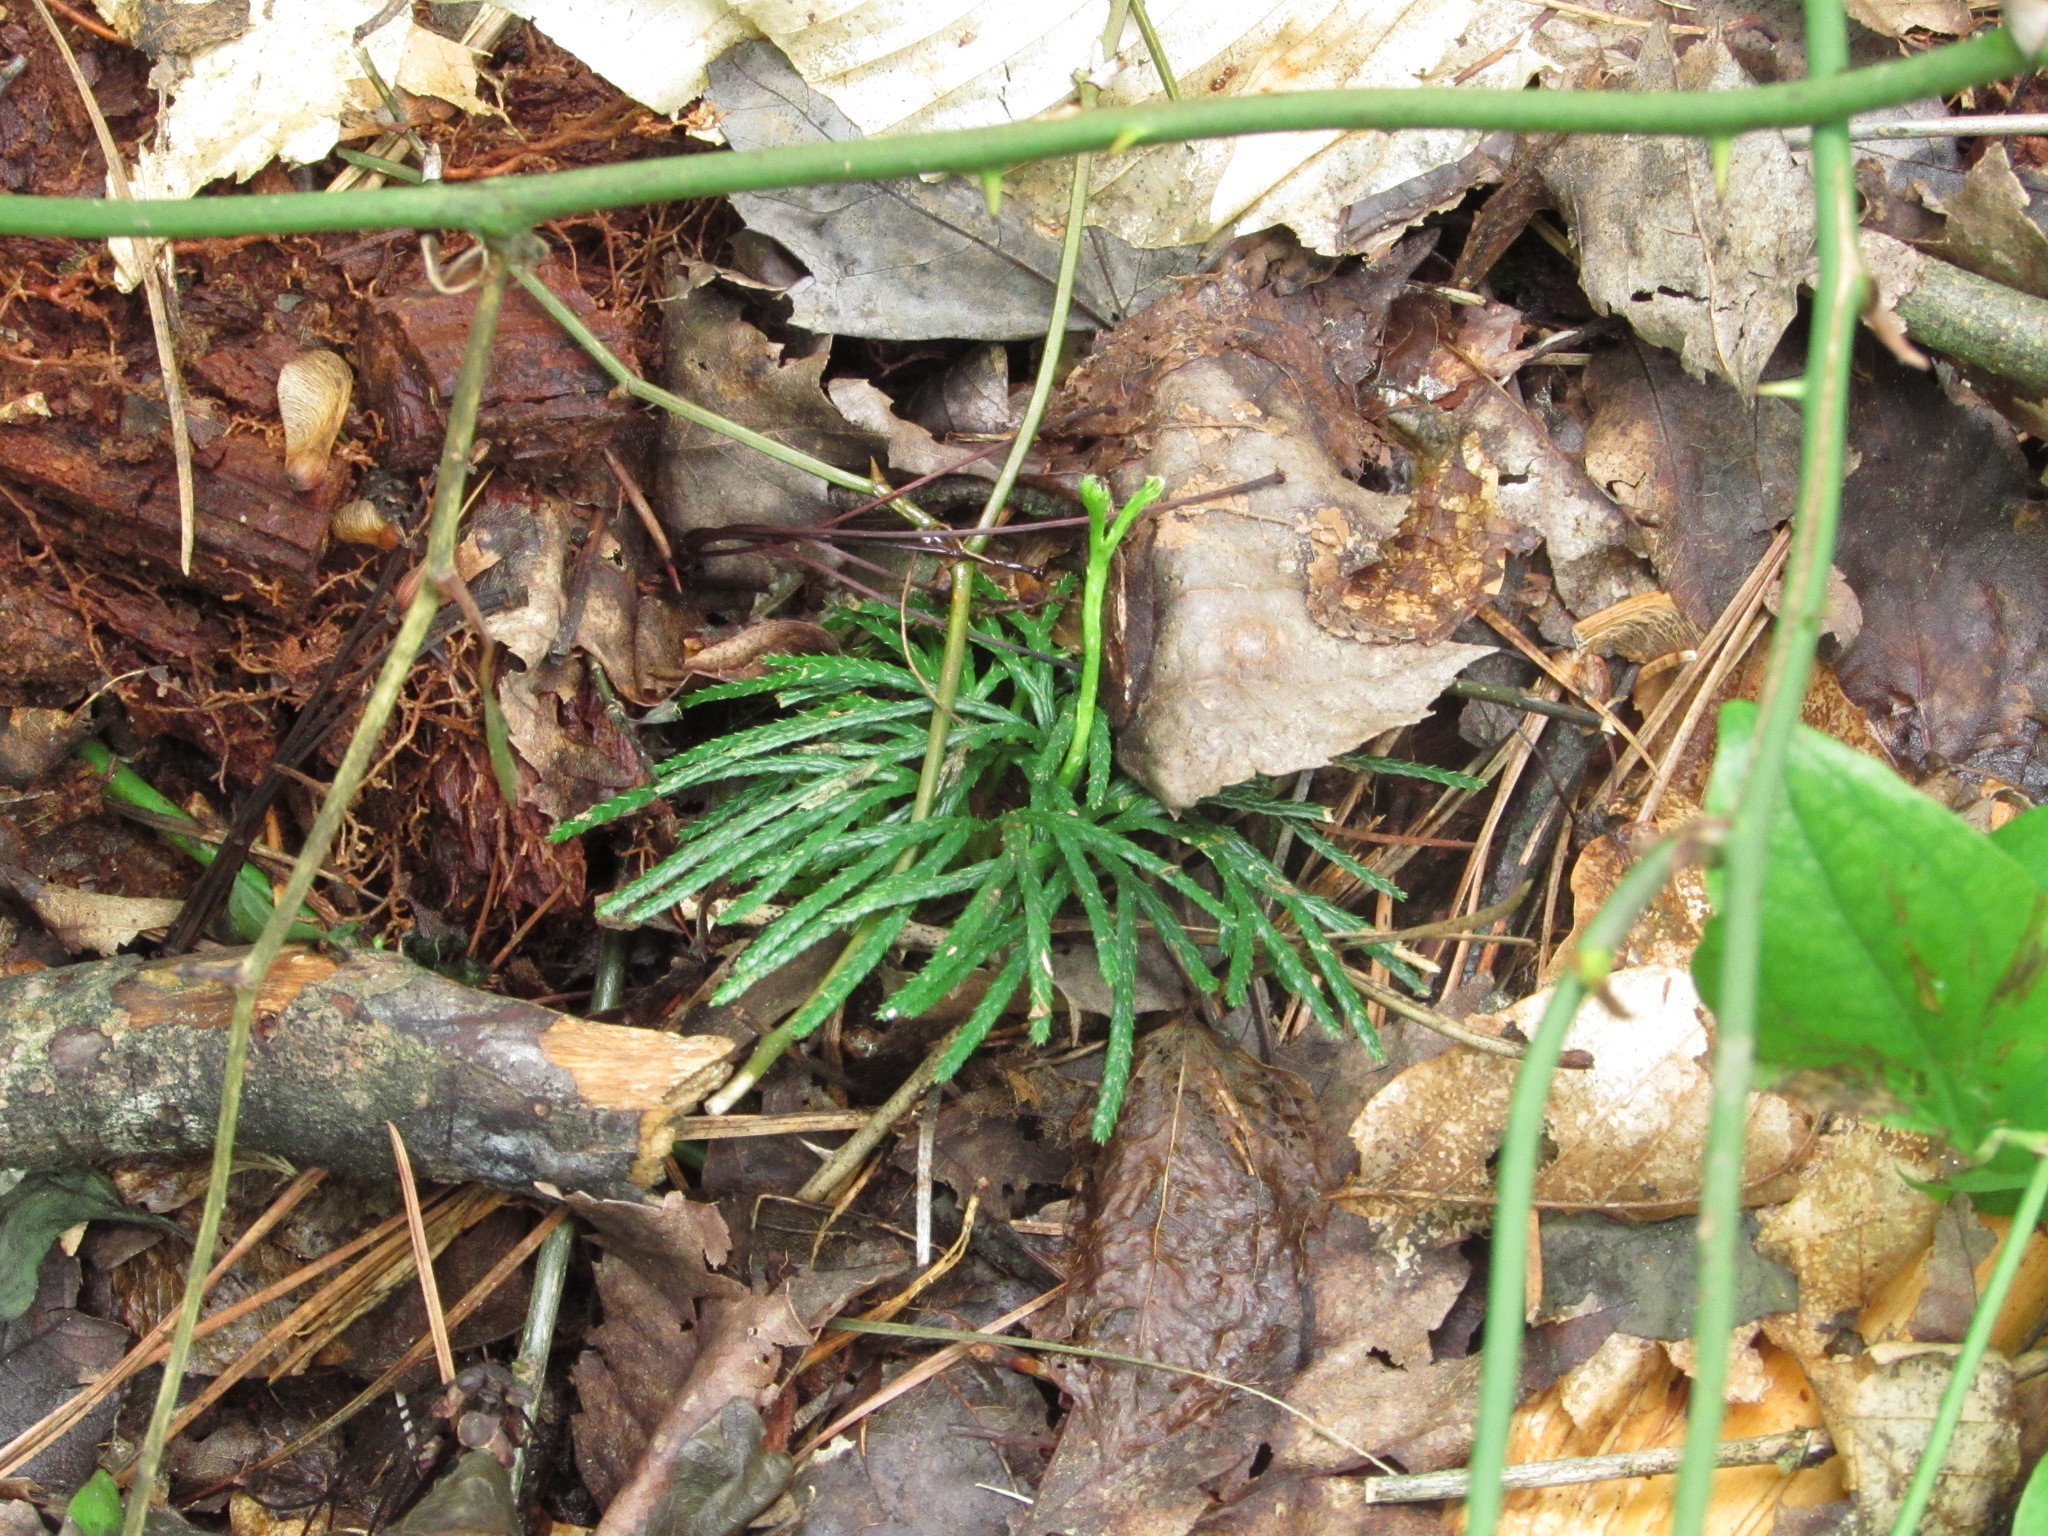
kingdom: Plantae
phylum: Tracheophyta
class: Lycopodiopsida
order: Lycopodiales
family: Lycopodiaceae
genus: Diphasiastrum
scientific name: Diphasiastrum digitatum
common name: Southern running-pine
